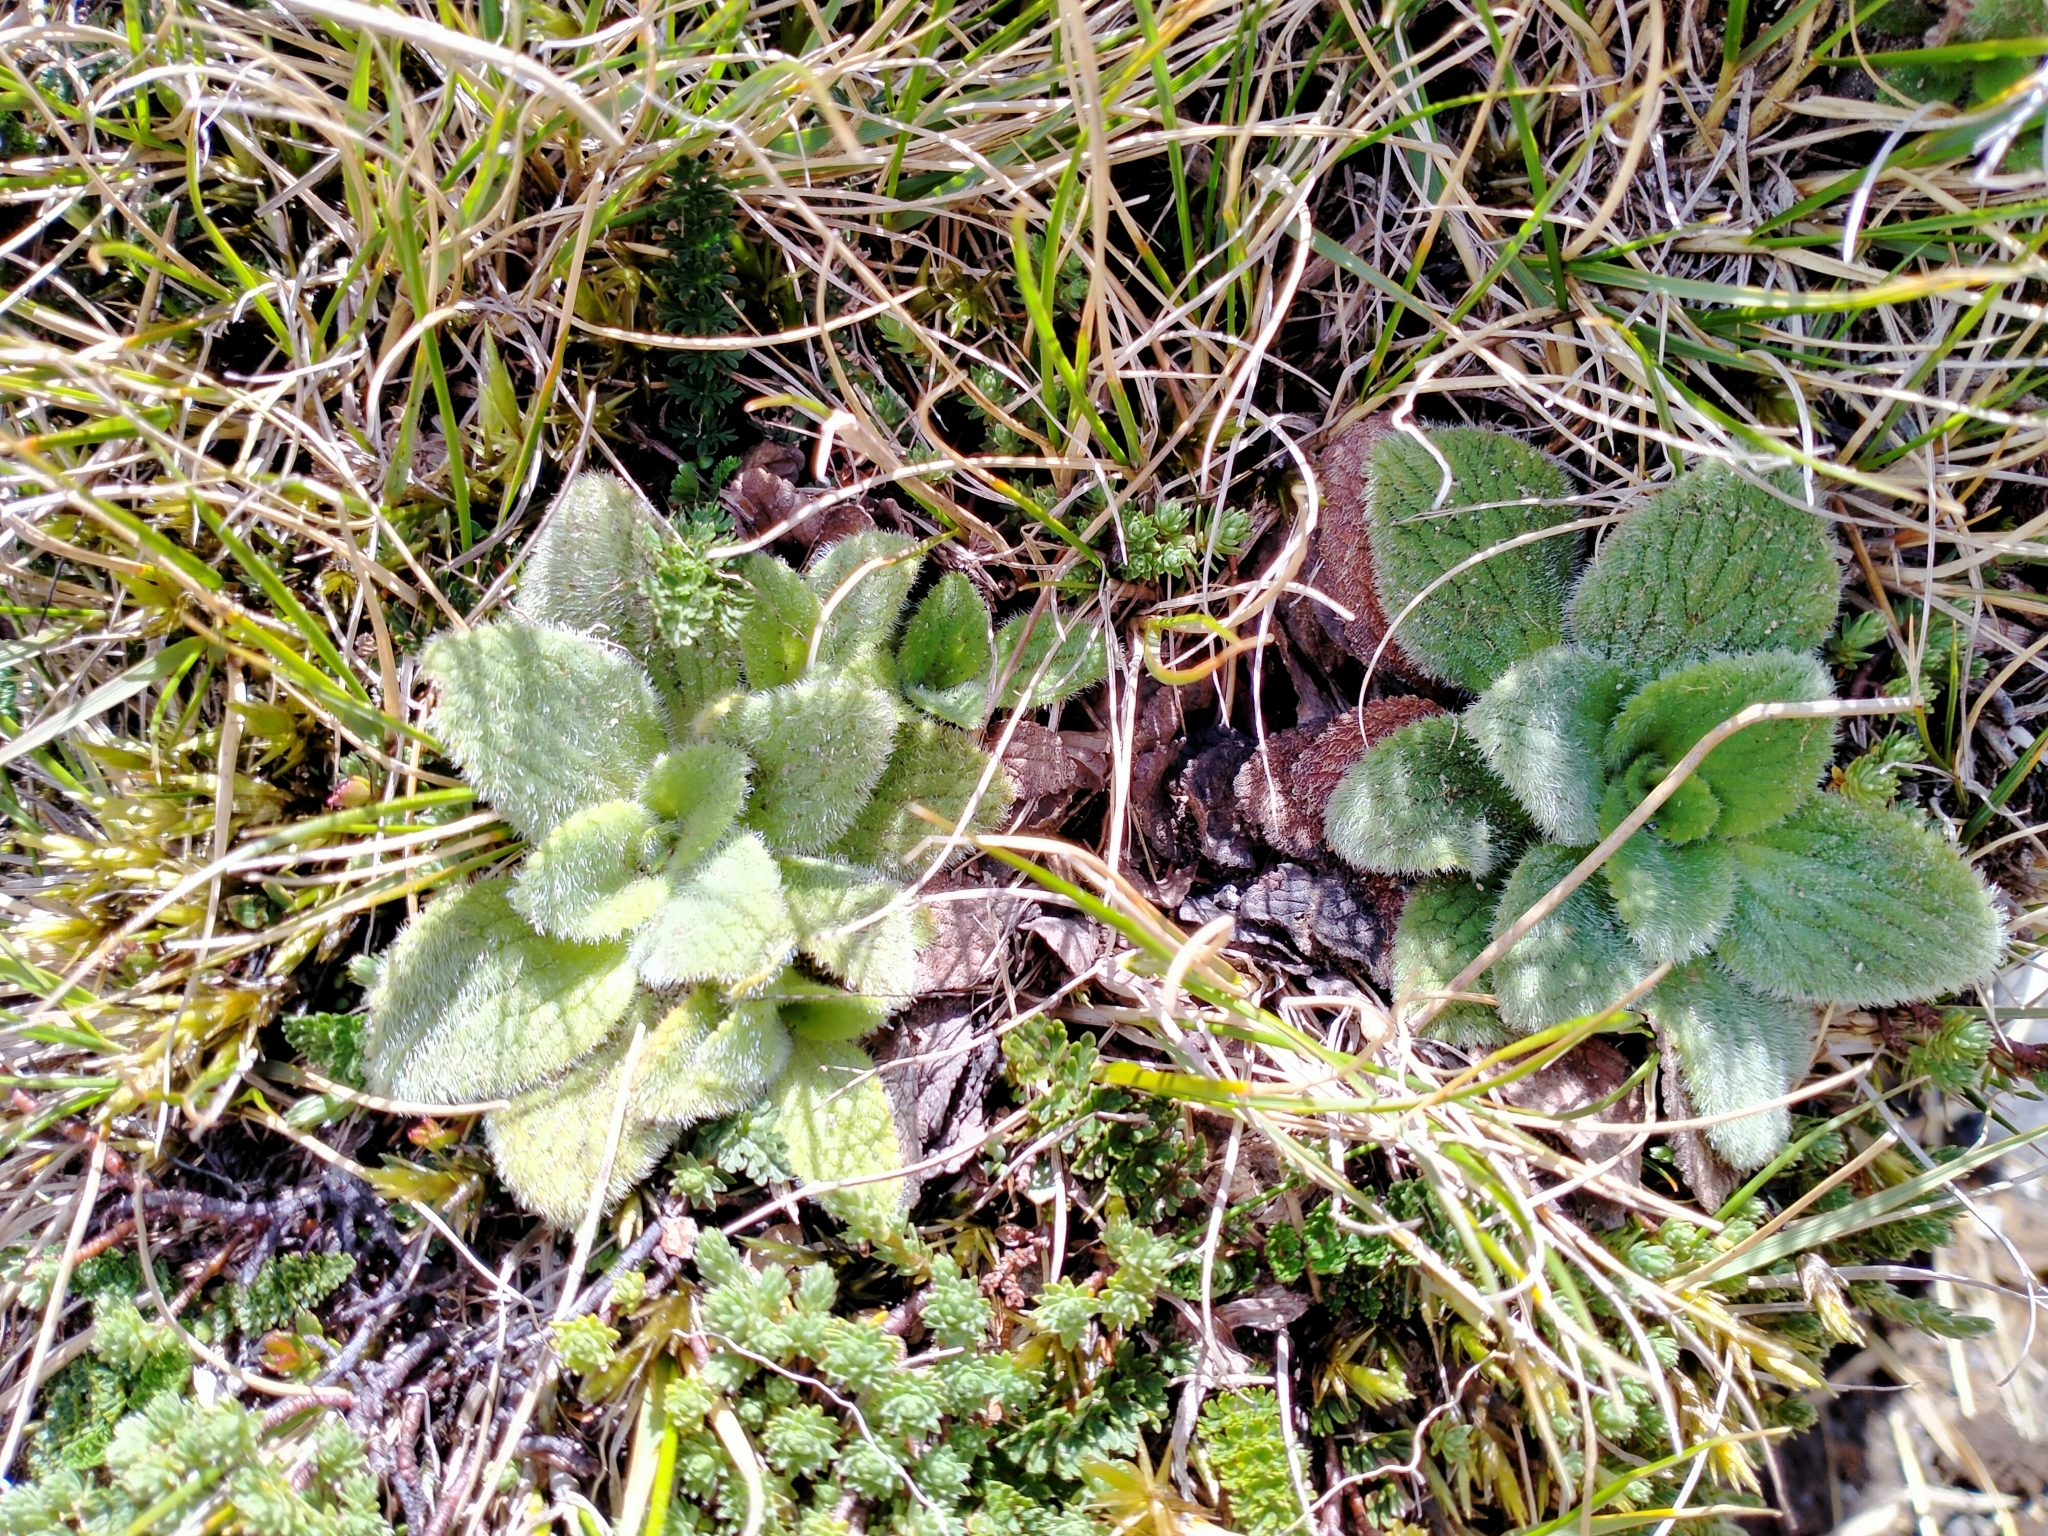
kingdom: Plantae
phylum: Tracheophyta
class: Magnoliopsida
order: Lamiales
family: Plantaginaceae
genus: Ourisia
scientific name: Ourisia sessilifolia
